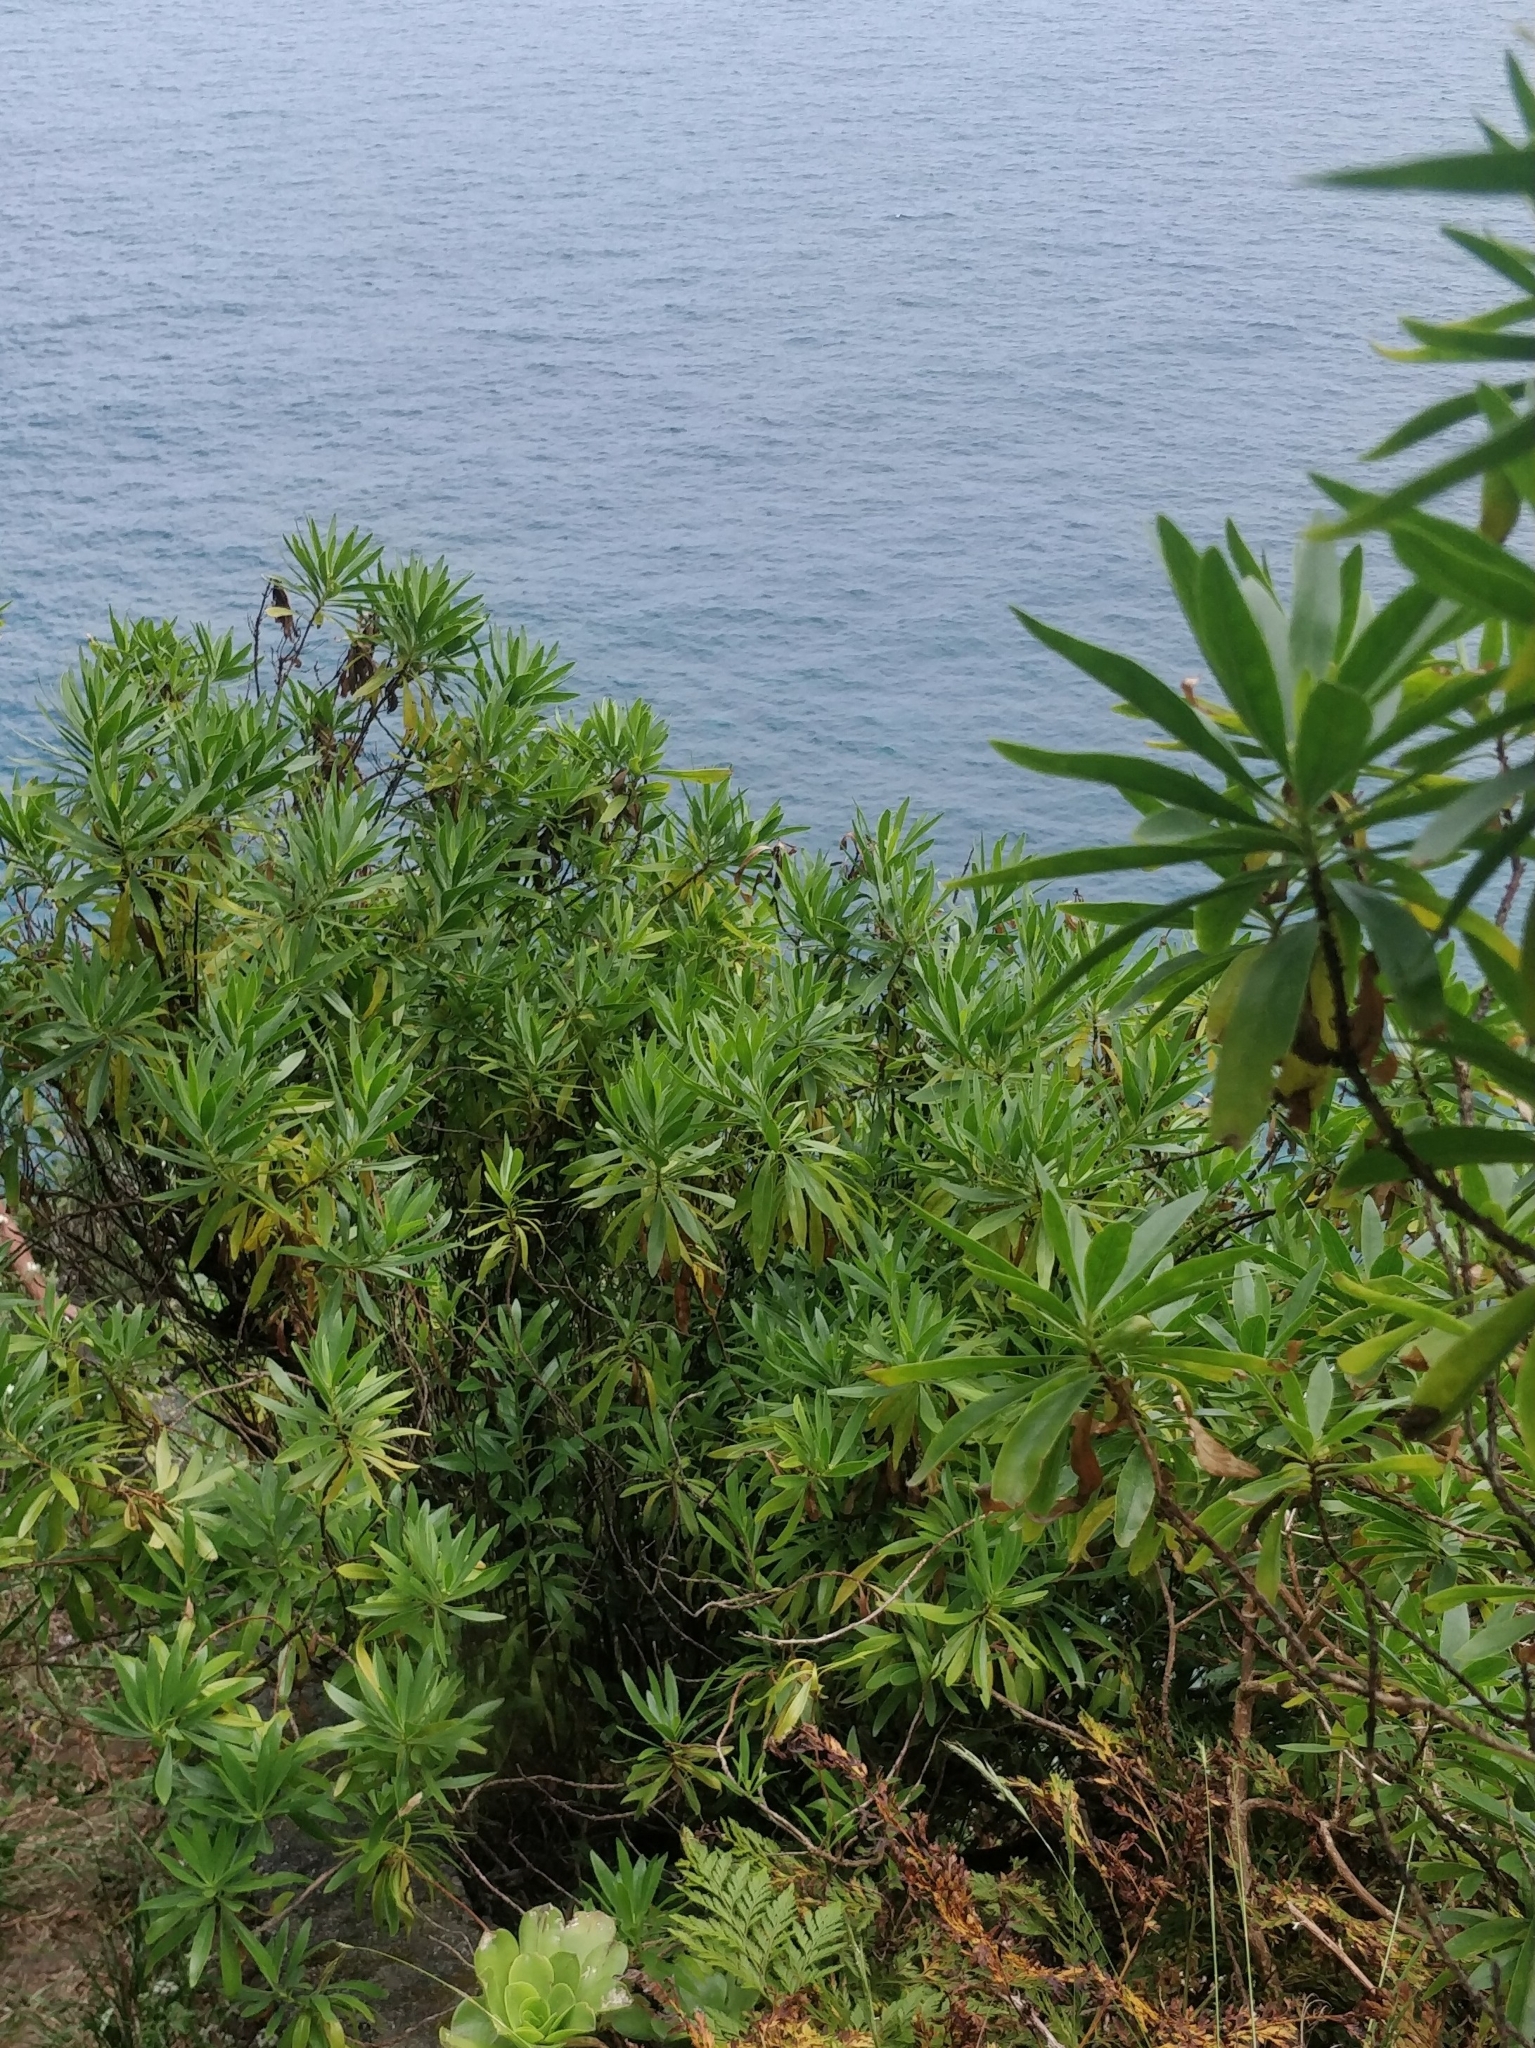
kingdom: Plantae
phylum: Tracheophyta
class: Magnoliopsida
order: Lamiales
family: Plantaginaceae
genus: Globularia
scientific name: Globularia salicina
